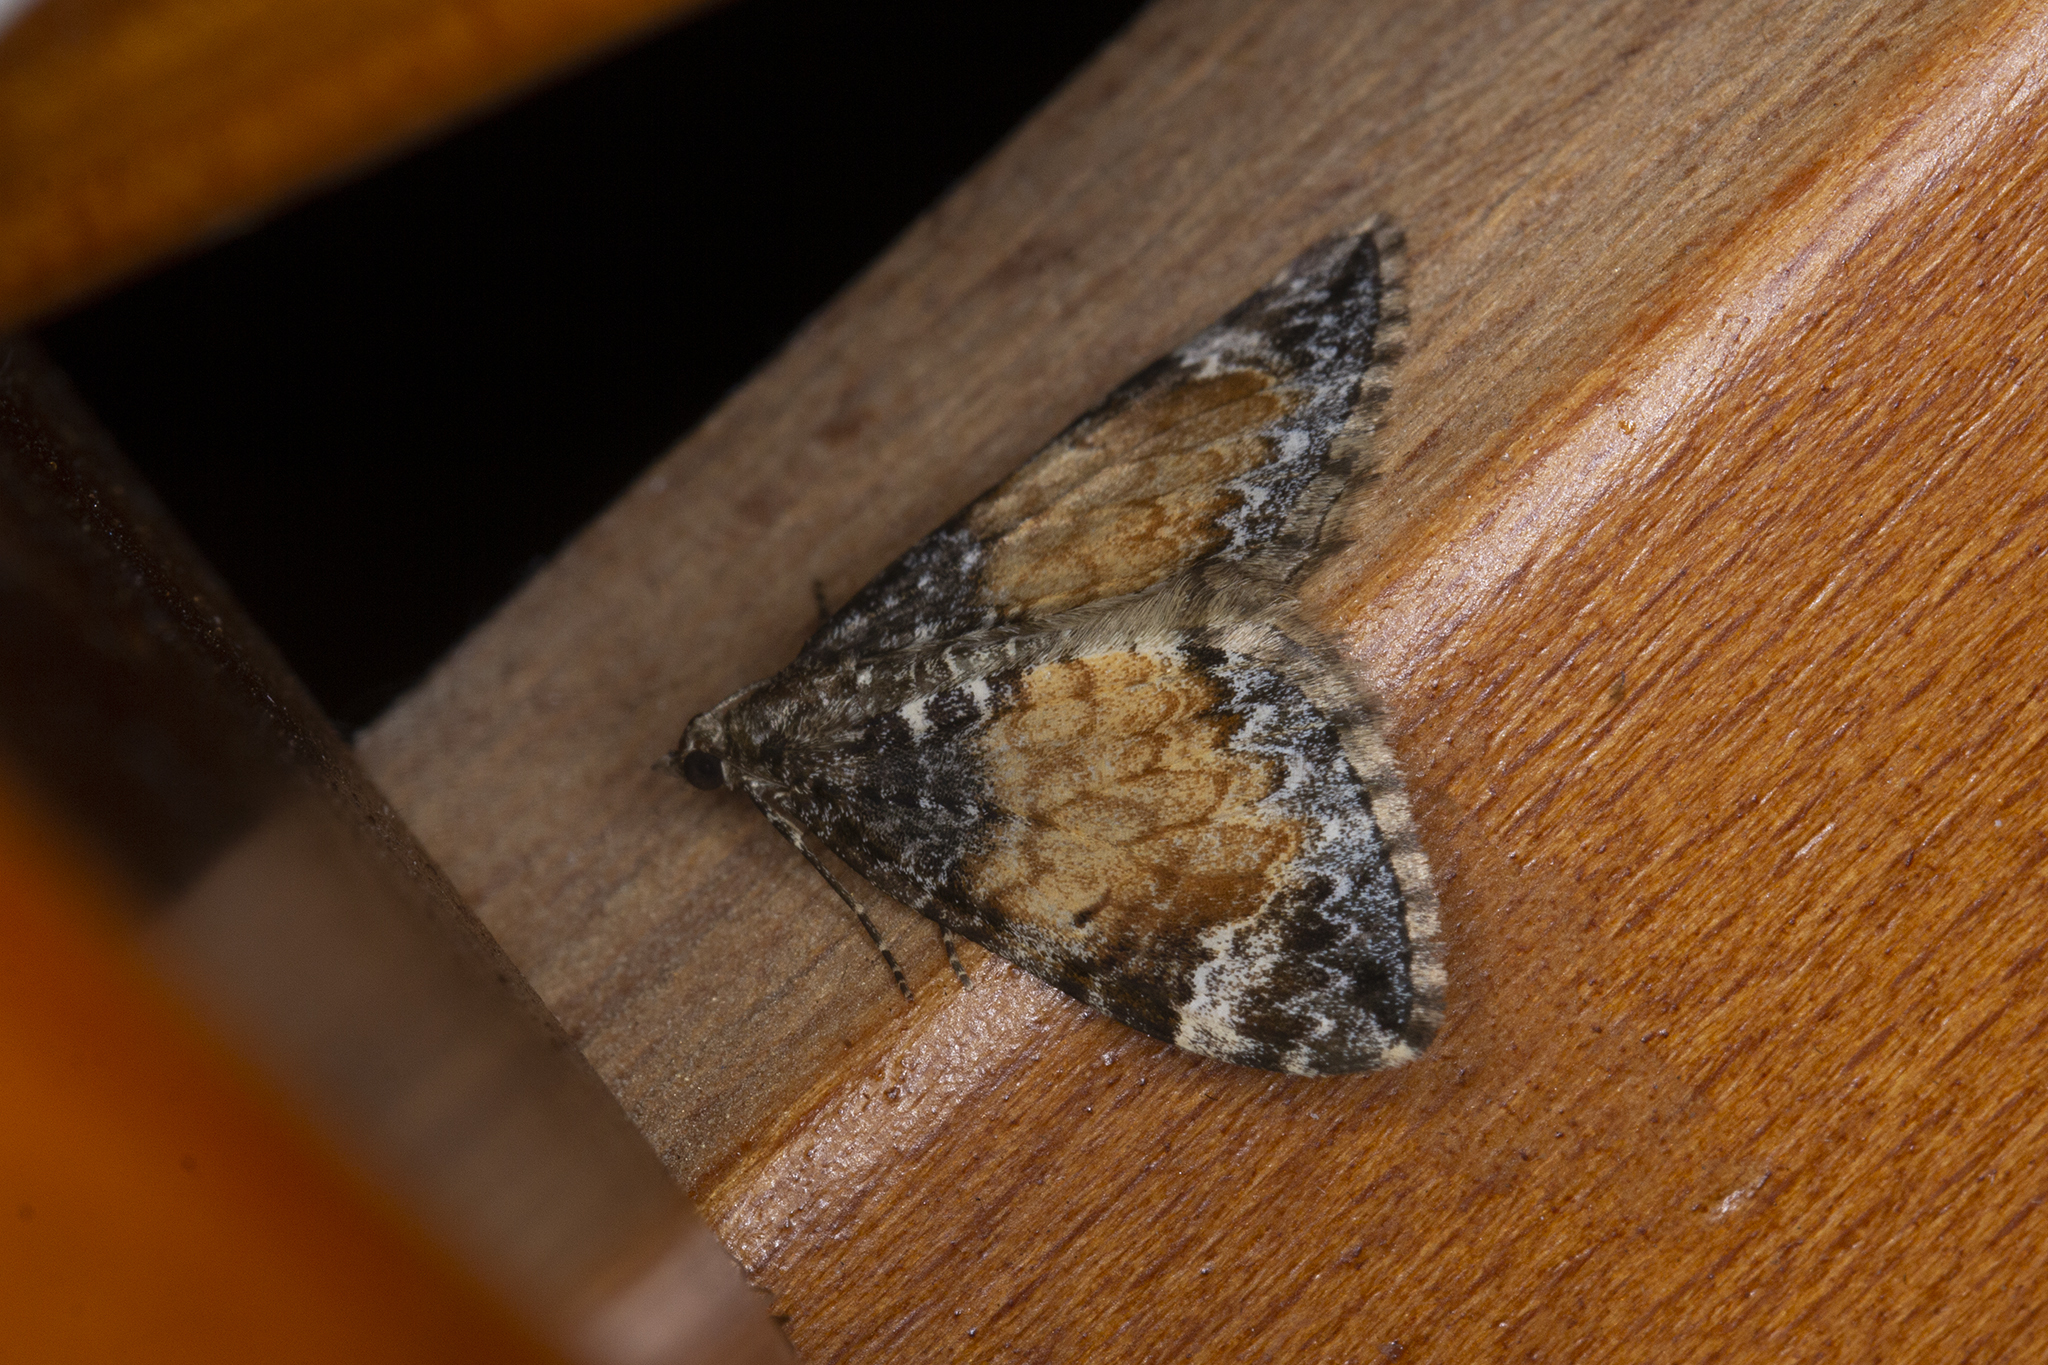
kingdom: Animalia
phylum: Arthropoda
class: Insecta
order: Lepidoptera
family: Geometridae
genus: Dysstroma
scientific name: Dysstroma truncata
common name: Common marbled carpet
